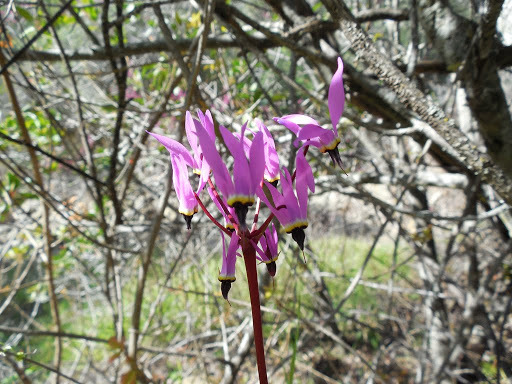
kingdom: Plantae
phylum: Tracheophyta
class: Magnoliopsida
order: Ericales
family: Primulaceae
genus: Dodecatheon
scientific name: Dodecatheon hendersonii
